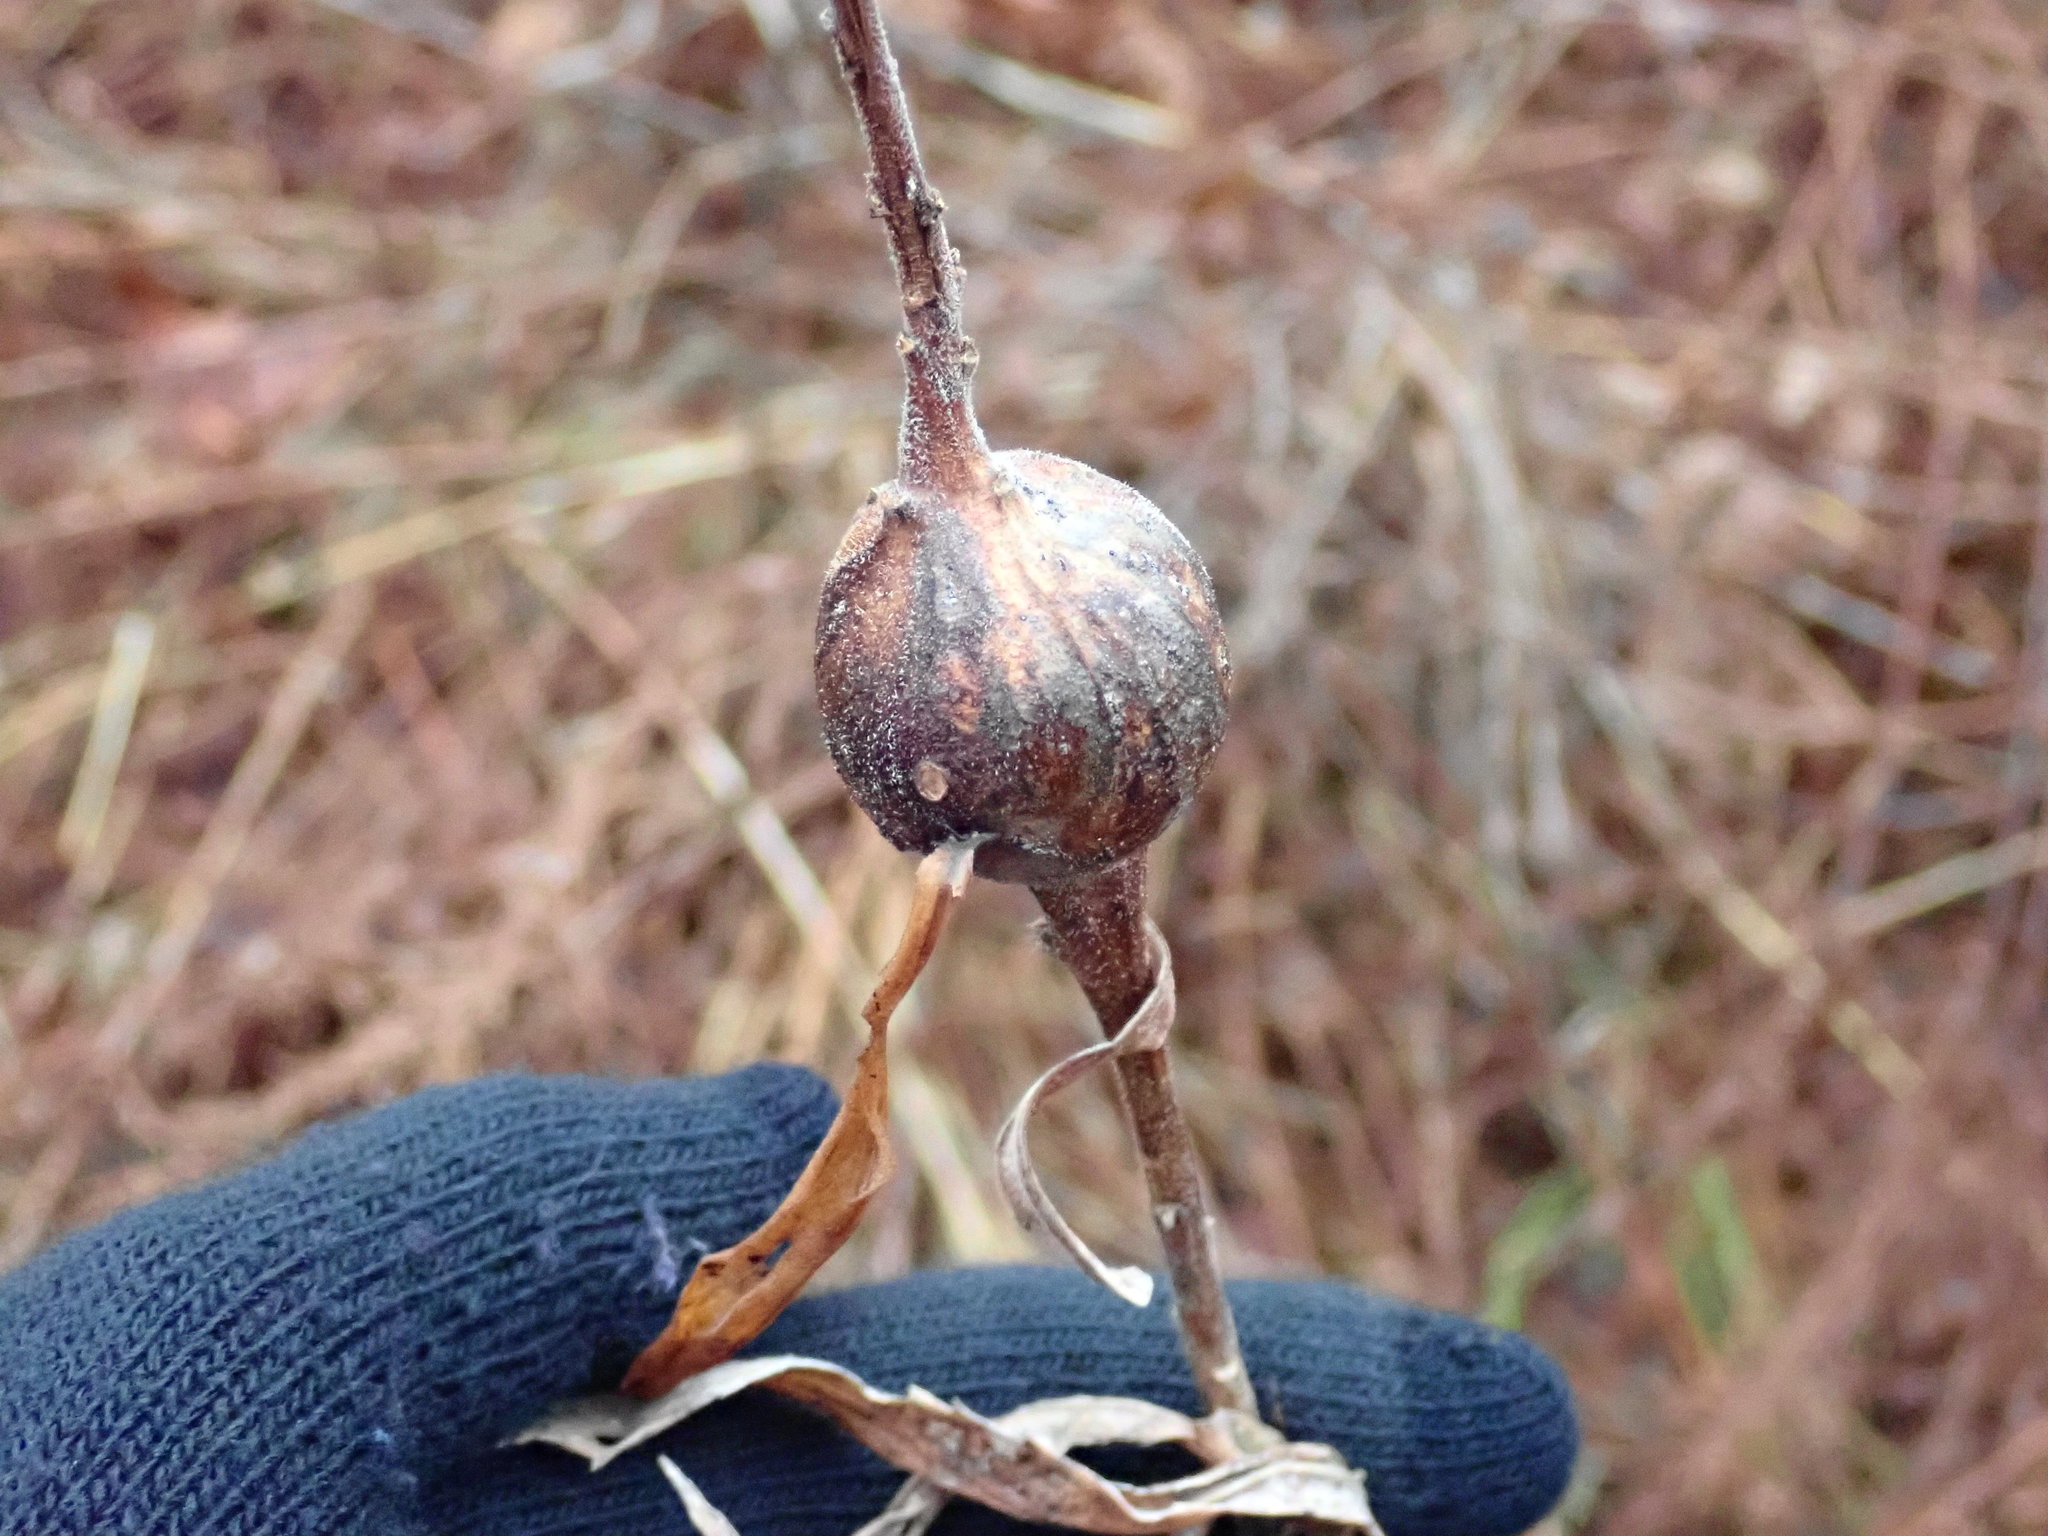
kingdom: Animalia
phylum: Arthropoda
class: Insecta
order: Diptera
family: Tephritidae
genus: Eurosta
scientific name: Eurosta solidaginis
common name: Goldenrod gall fly
